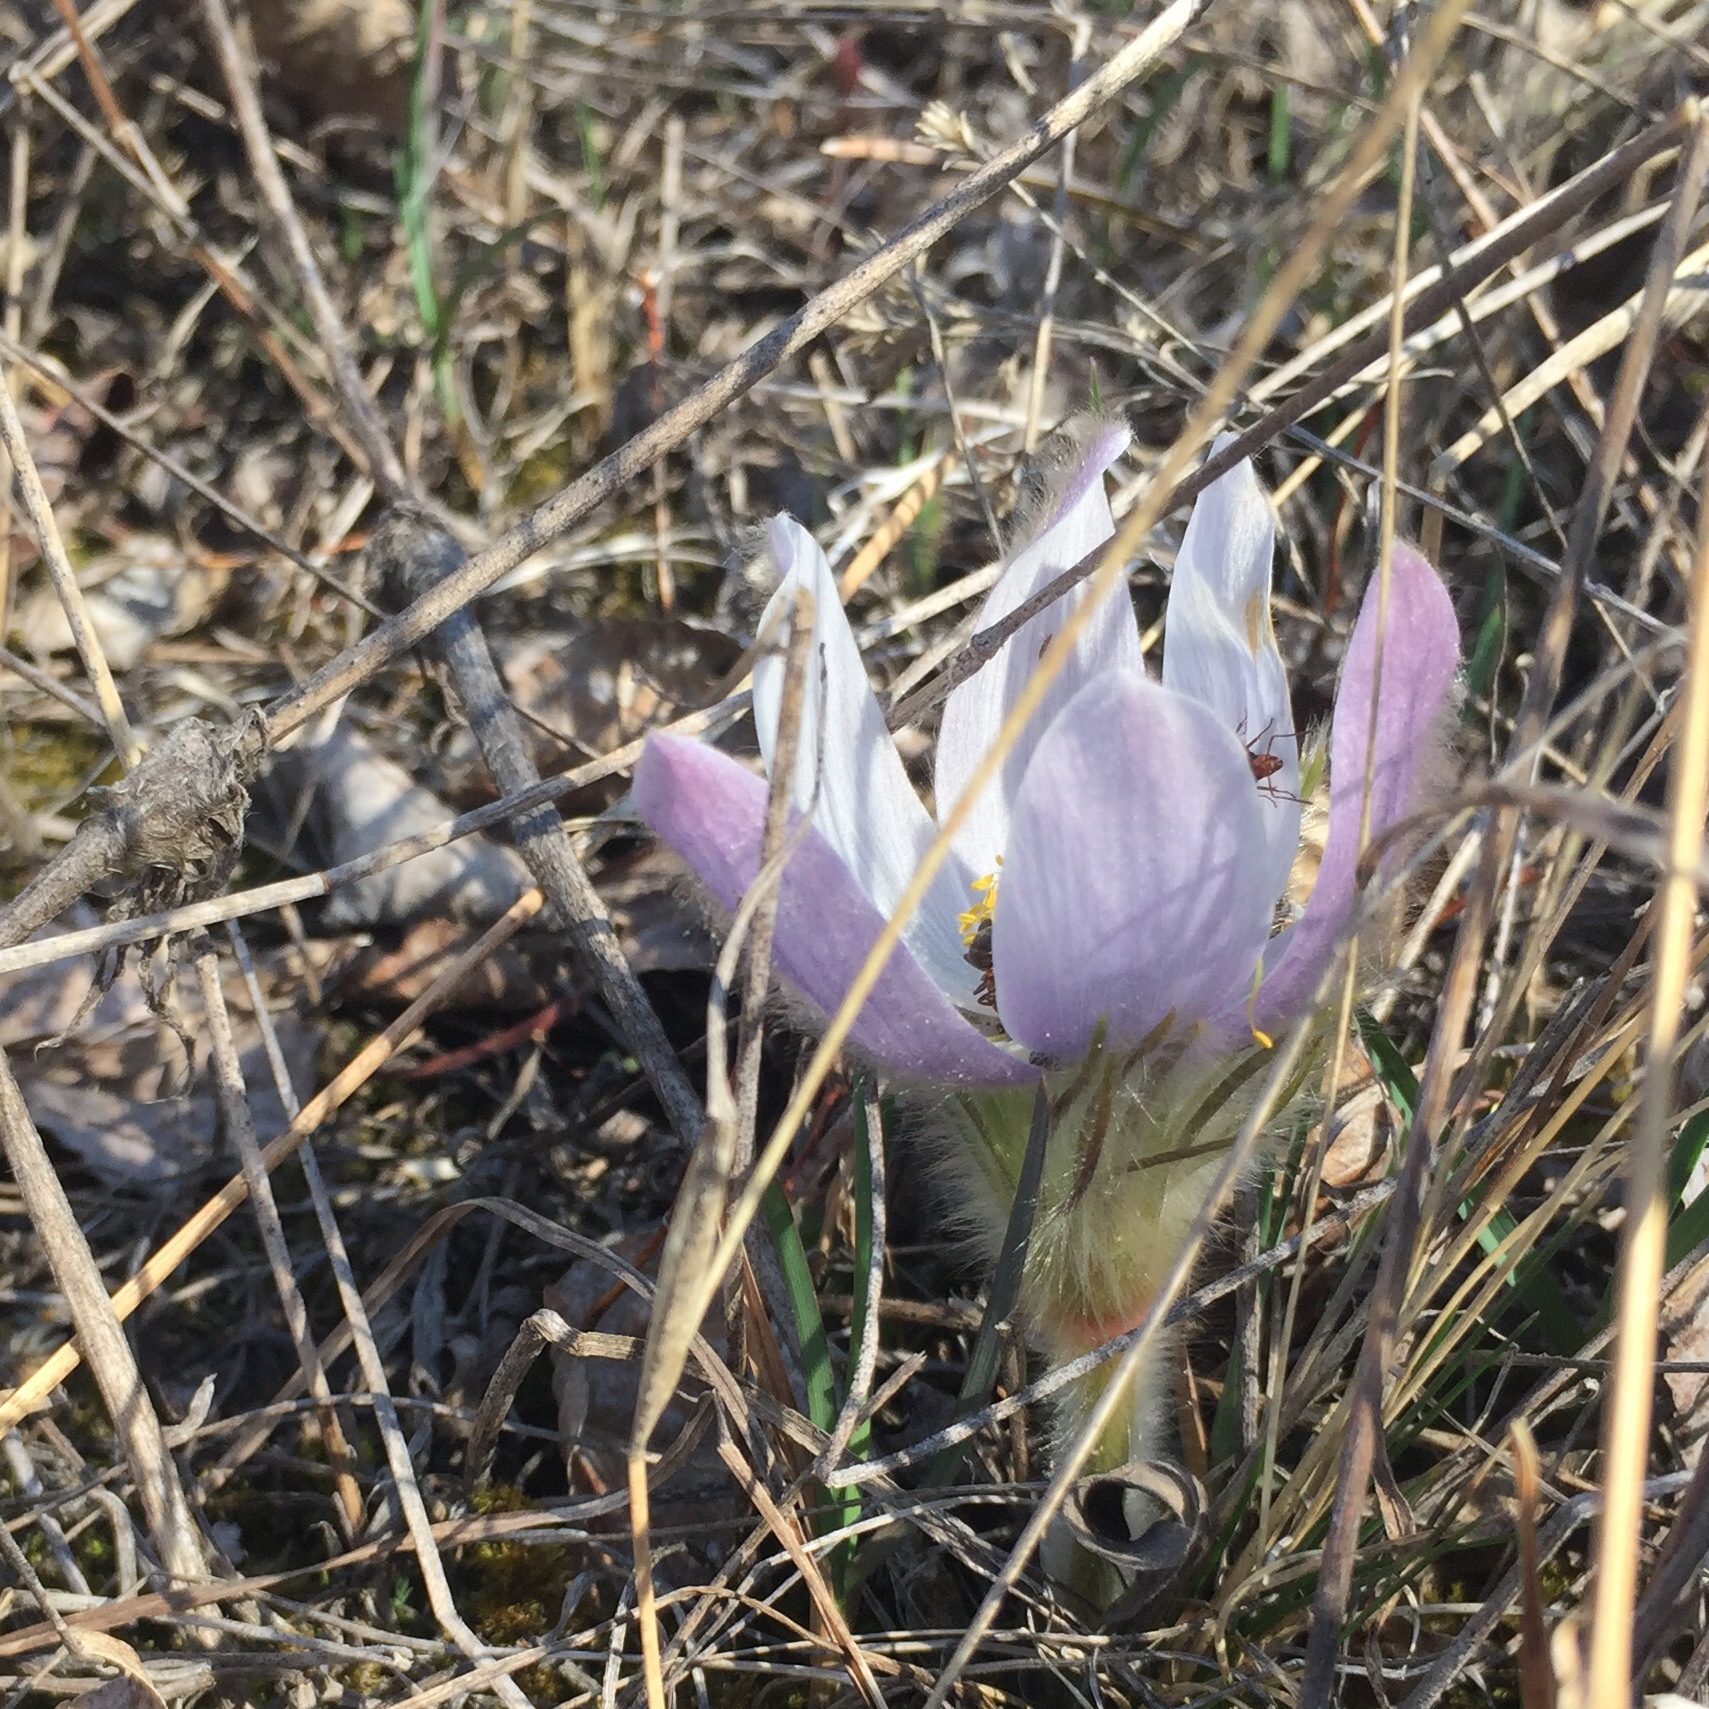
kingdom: Plantae
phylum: Tracheophyta
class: Magnoliopsida
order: Ranunculales
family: Ranunculaceae
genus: Pulsatilla
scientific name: Pulsatilla nuttalliana
